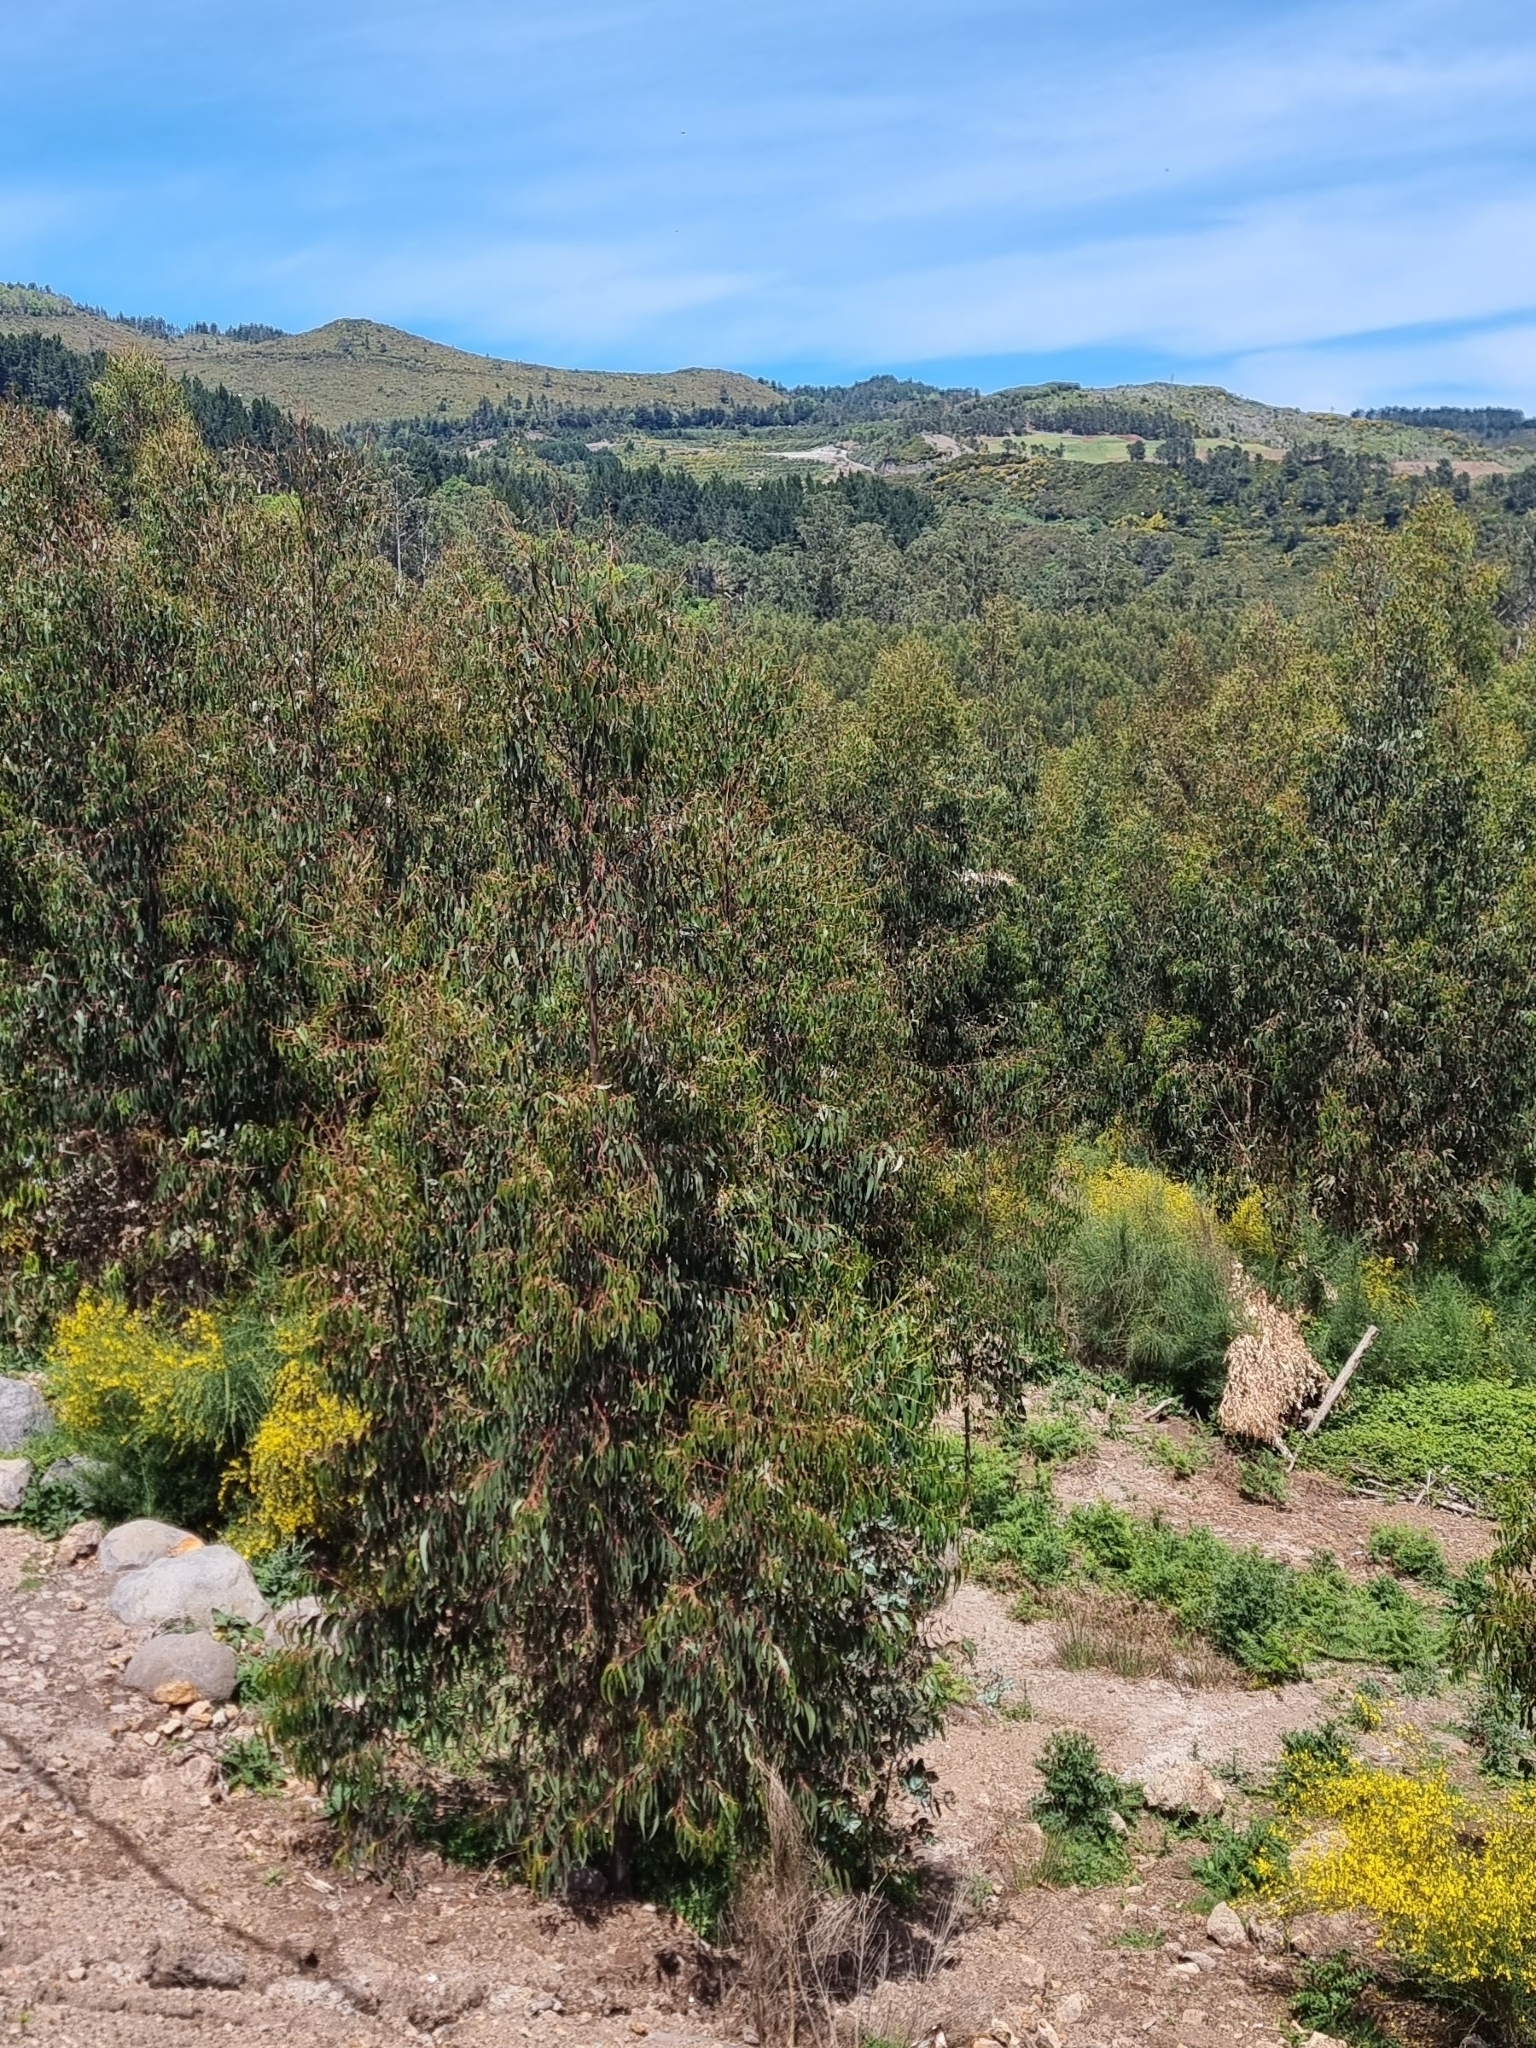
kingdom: Plantae
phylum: Tracheophyta
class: Magnoliopsida
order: Myrtales
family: Myrtaceae
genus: Eucalyptus
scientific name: Eucalyptus globulus
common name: Southern blue-gum
